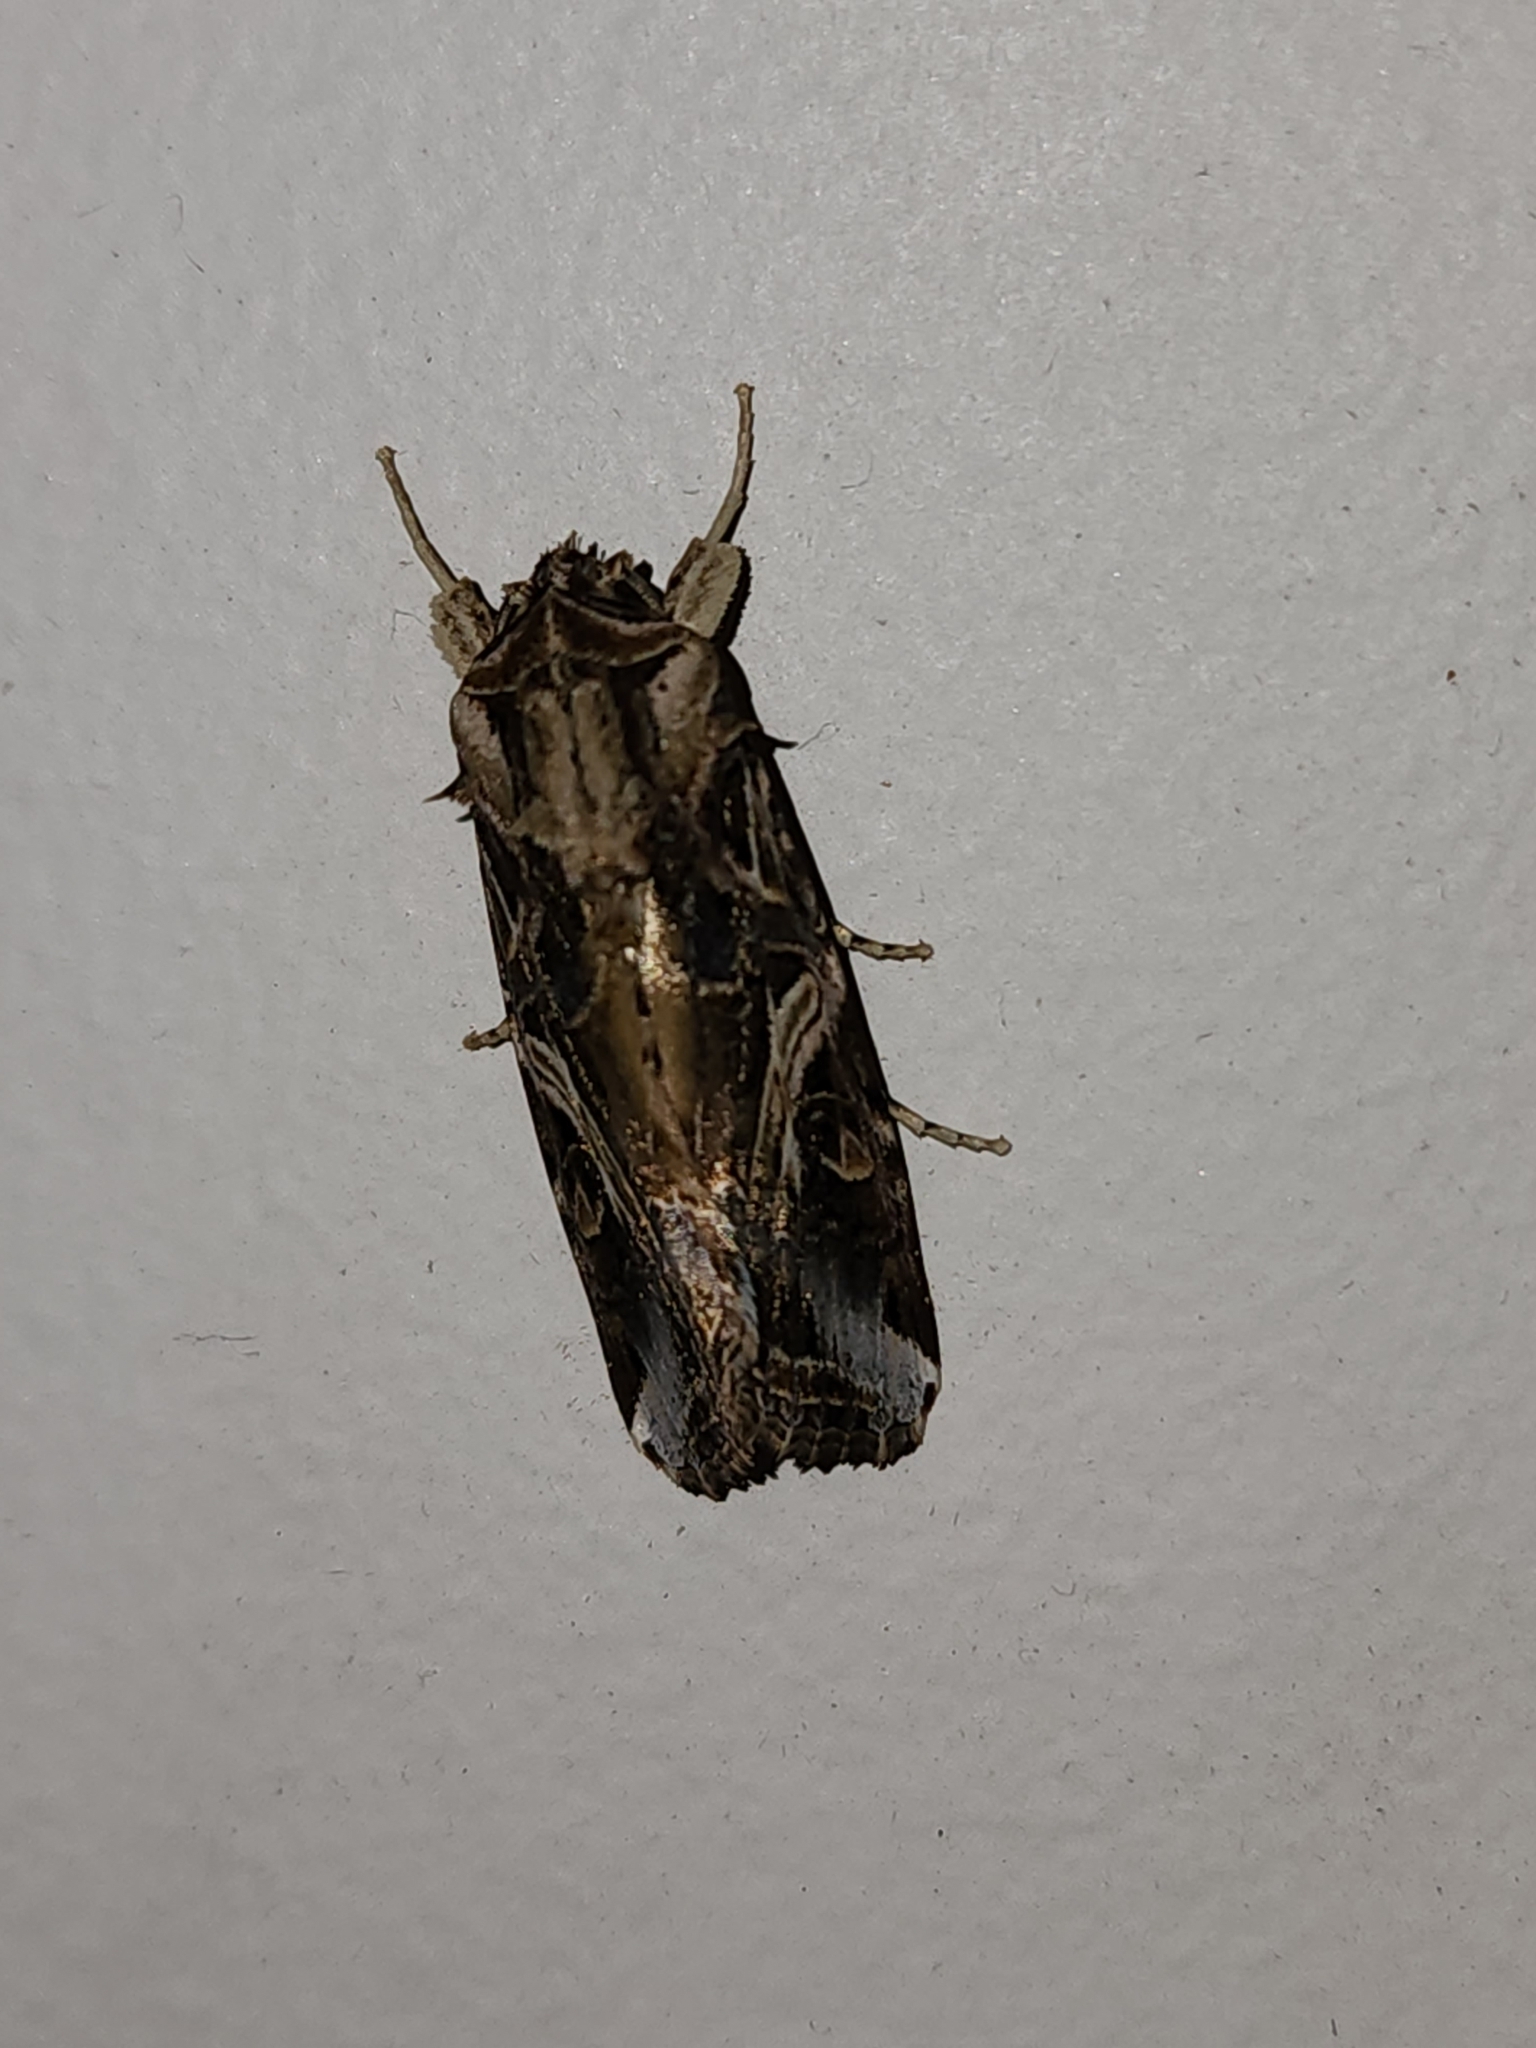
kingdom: Animalia
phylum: Arthropoda
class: Insecta
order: Lepidoptera
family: Noctuidae
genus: Spodoptera
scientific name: Spodoptera litura
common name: Asian cotton leafworm
